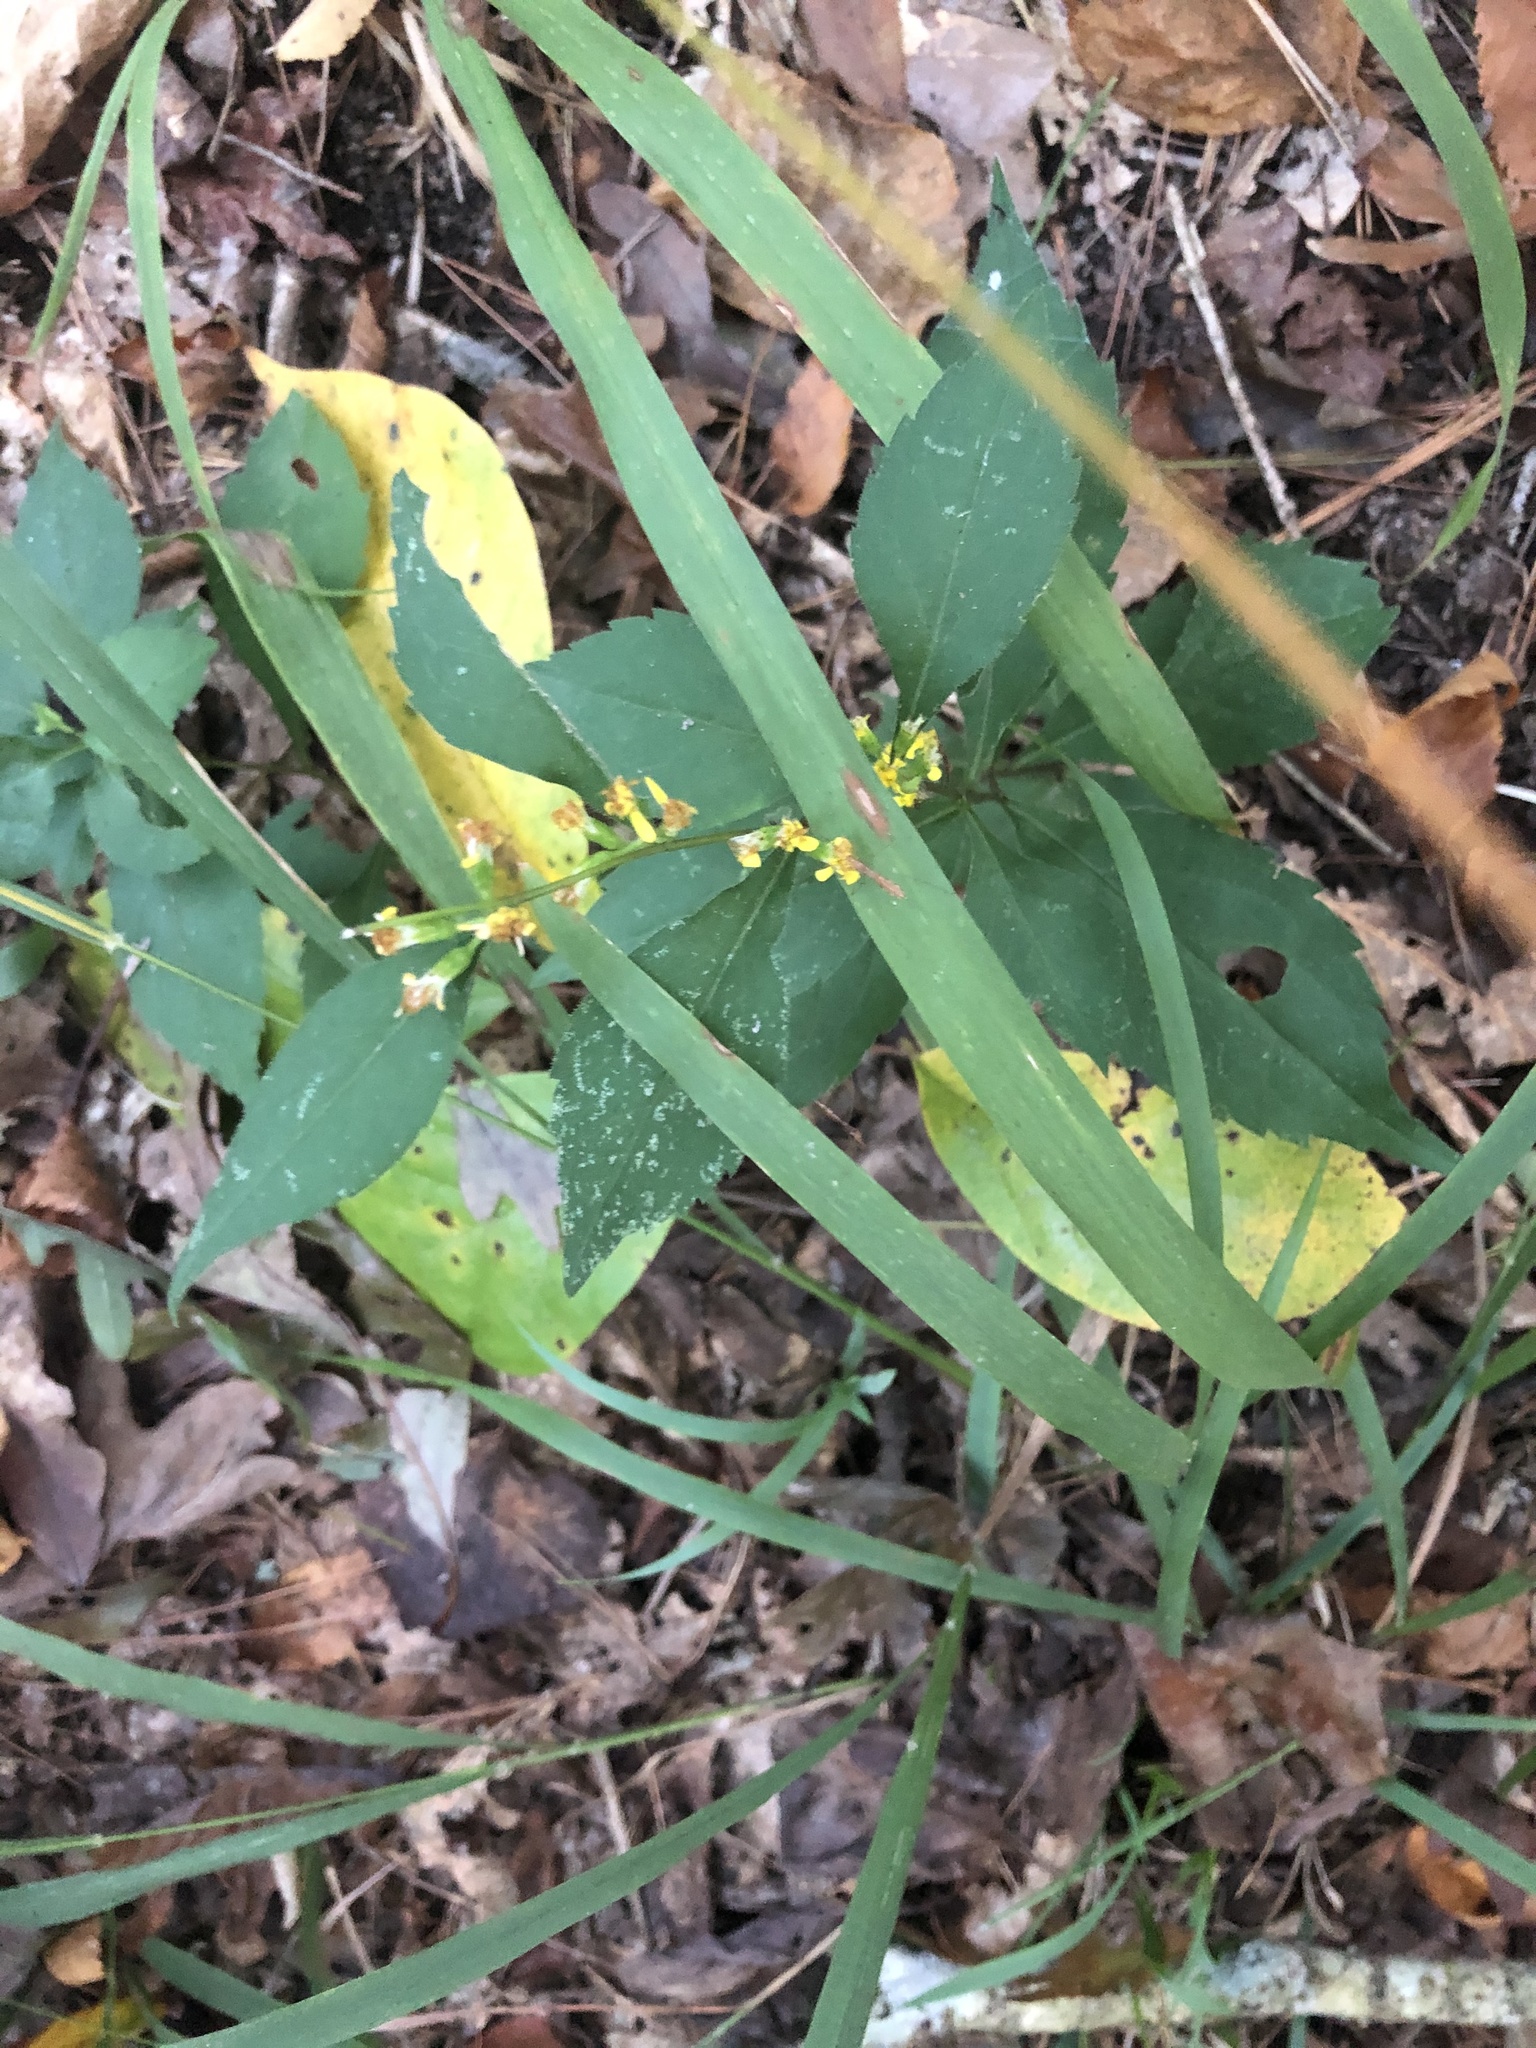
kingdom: Plantae
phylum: Tracheophyta
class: Magnoliopsida
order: Asterales
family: Asteraceae
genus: Solidago
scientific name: Solidago zedia
